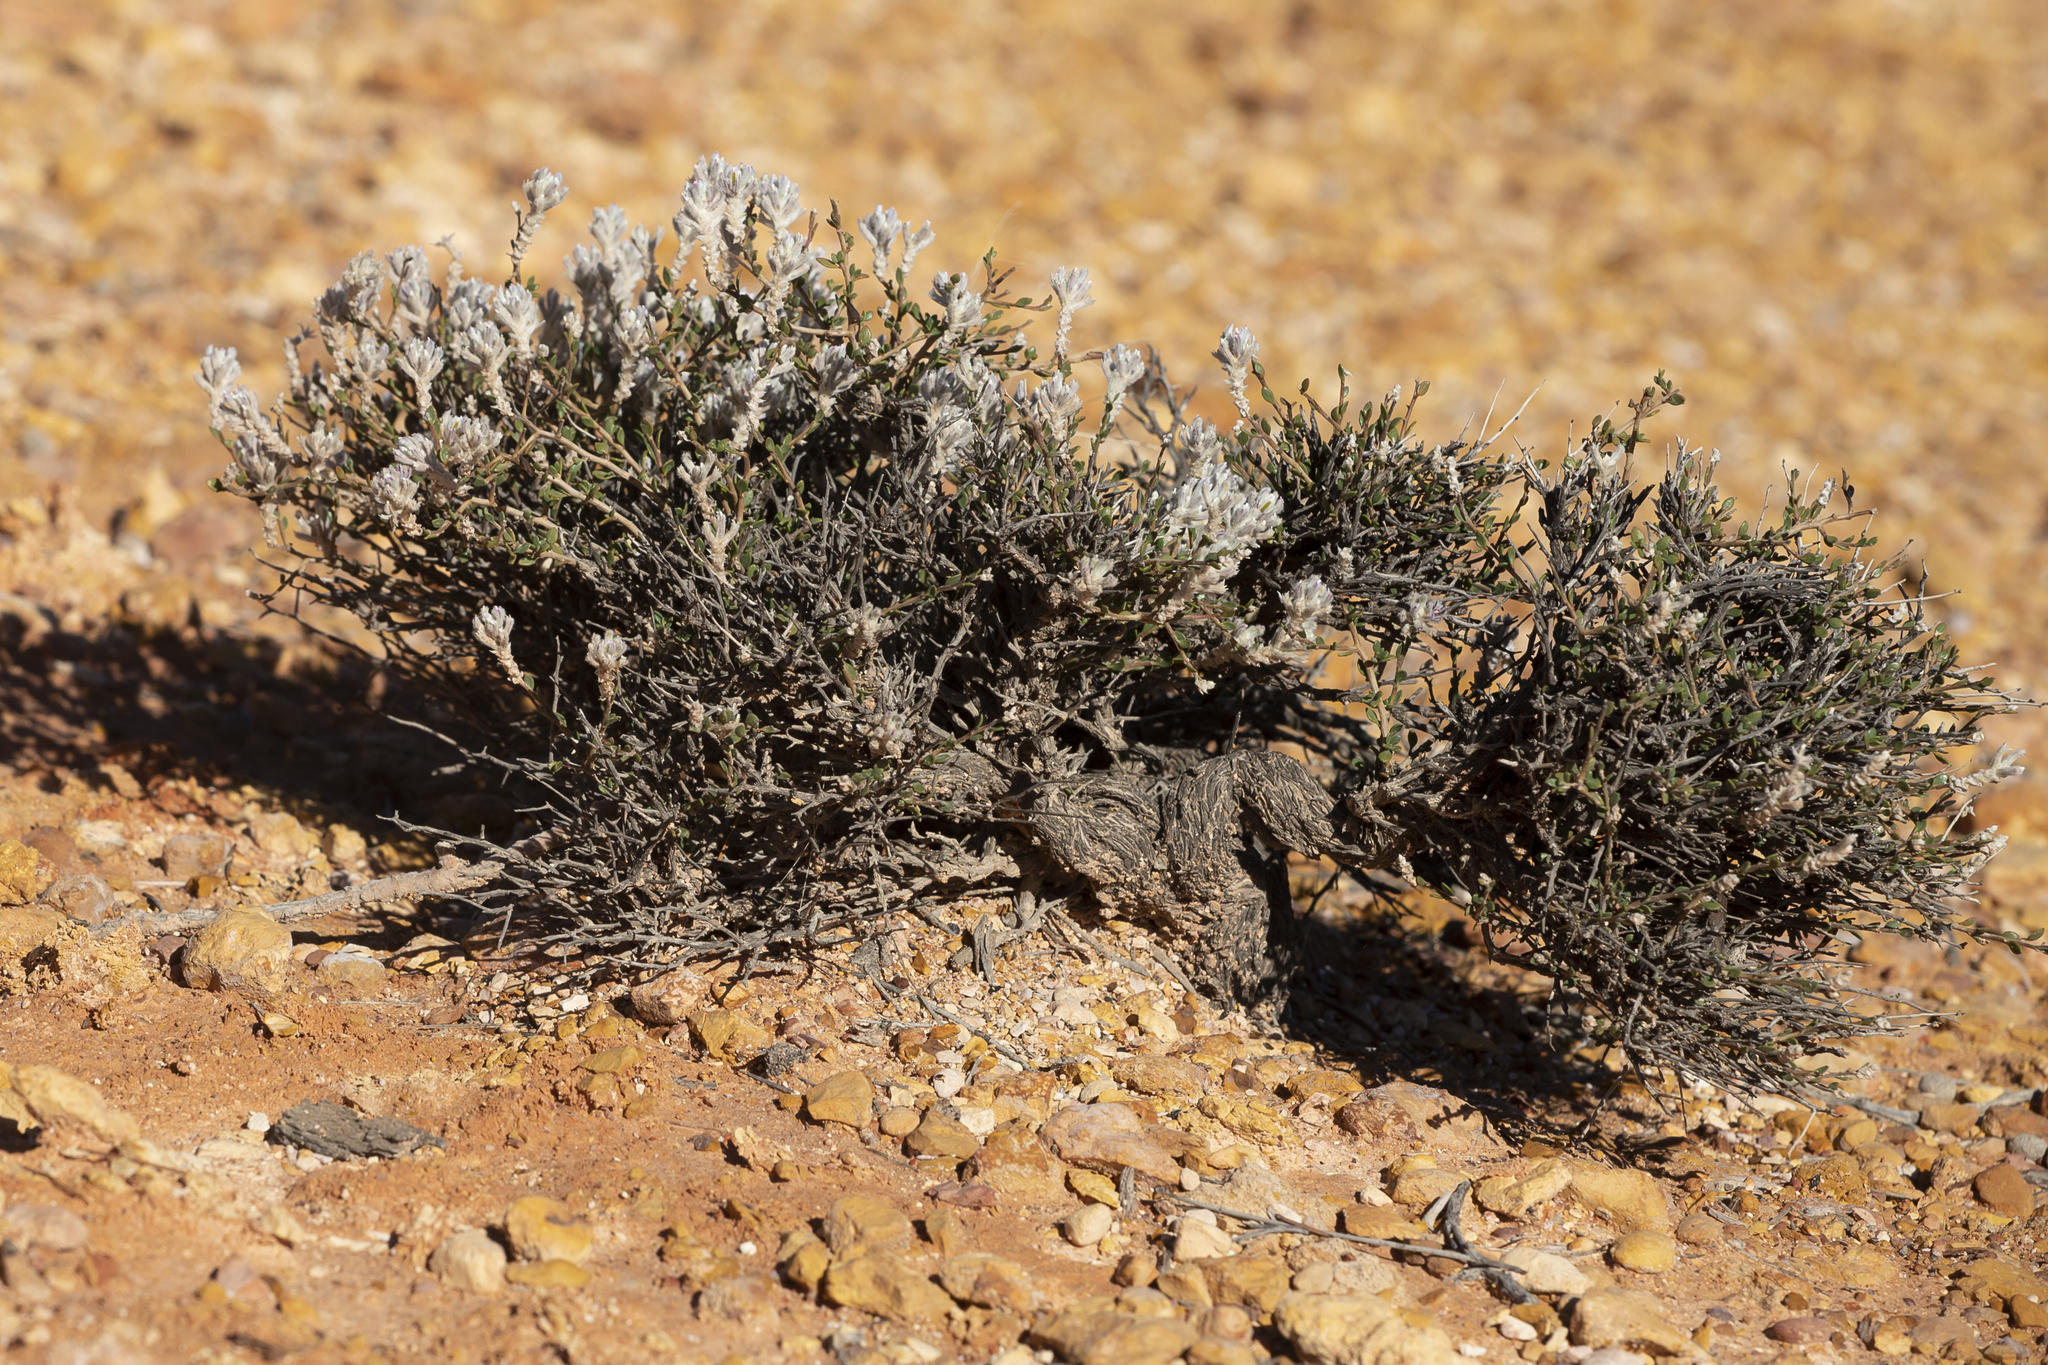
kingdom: Plantae
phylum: Tracheophyta
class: Magnoliopsida
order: Caryophyllales
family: Amaranthaceae
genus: Ptilotus
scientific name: Ptilotus barkeri
